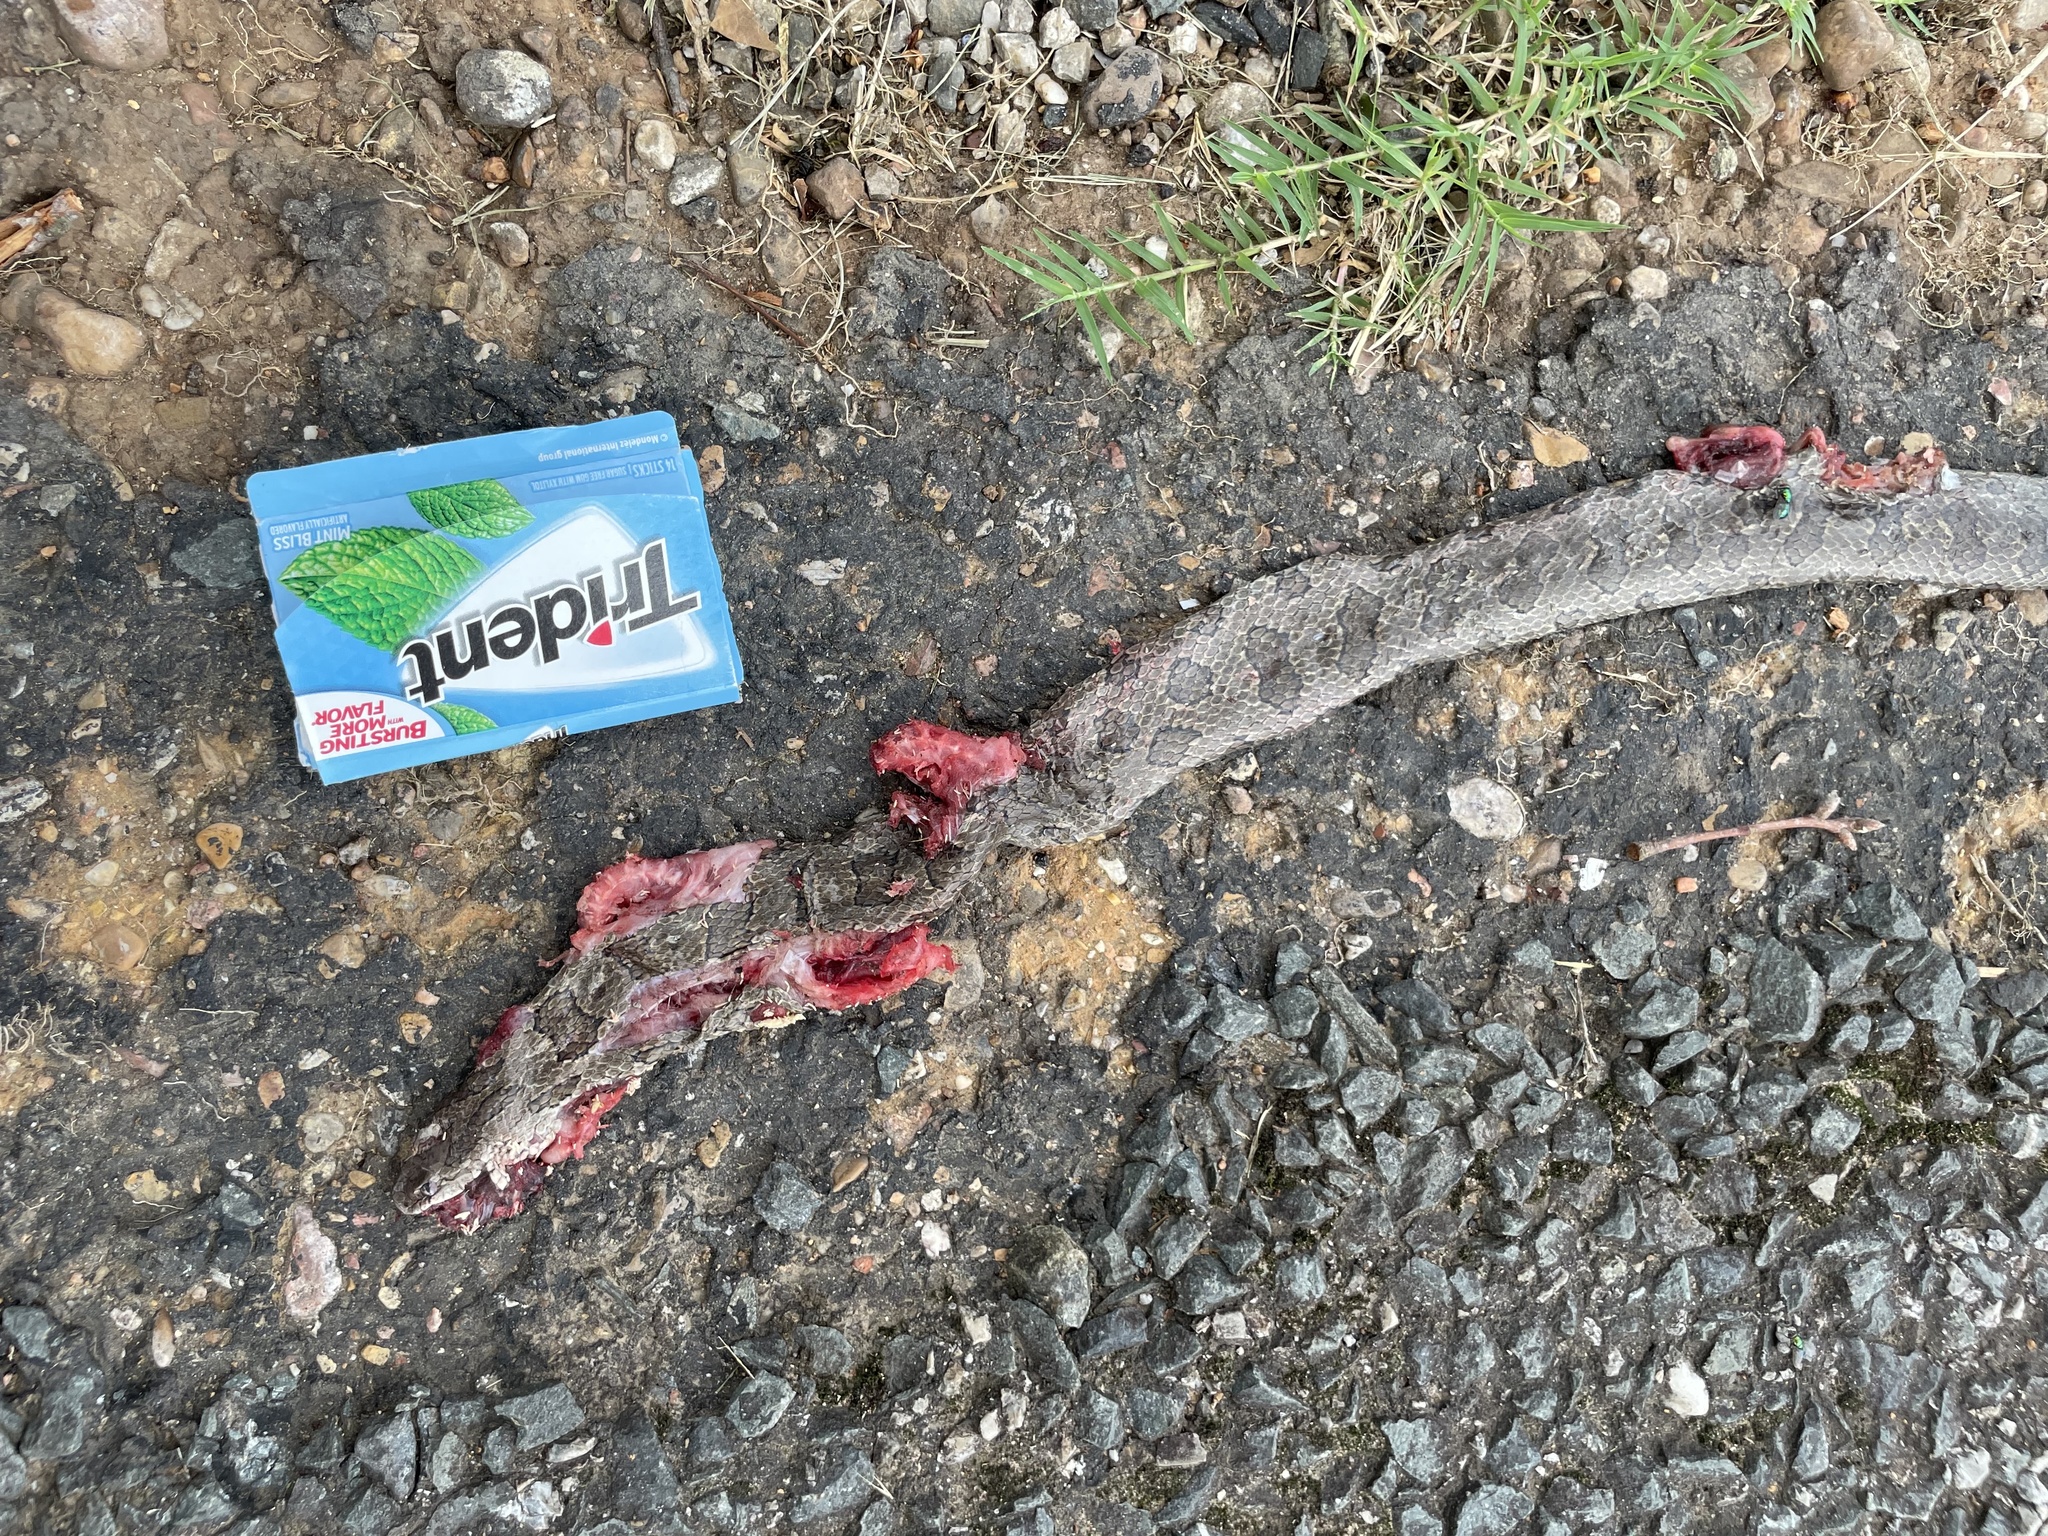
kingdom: Animalia
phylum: Chordata
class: Squamata
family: Colubridae
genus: Lampropeltis
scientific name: Lampropeltis calligaster
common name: Prairie kingsnake
